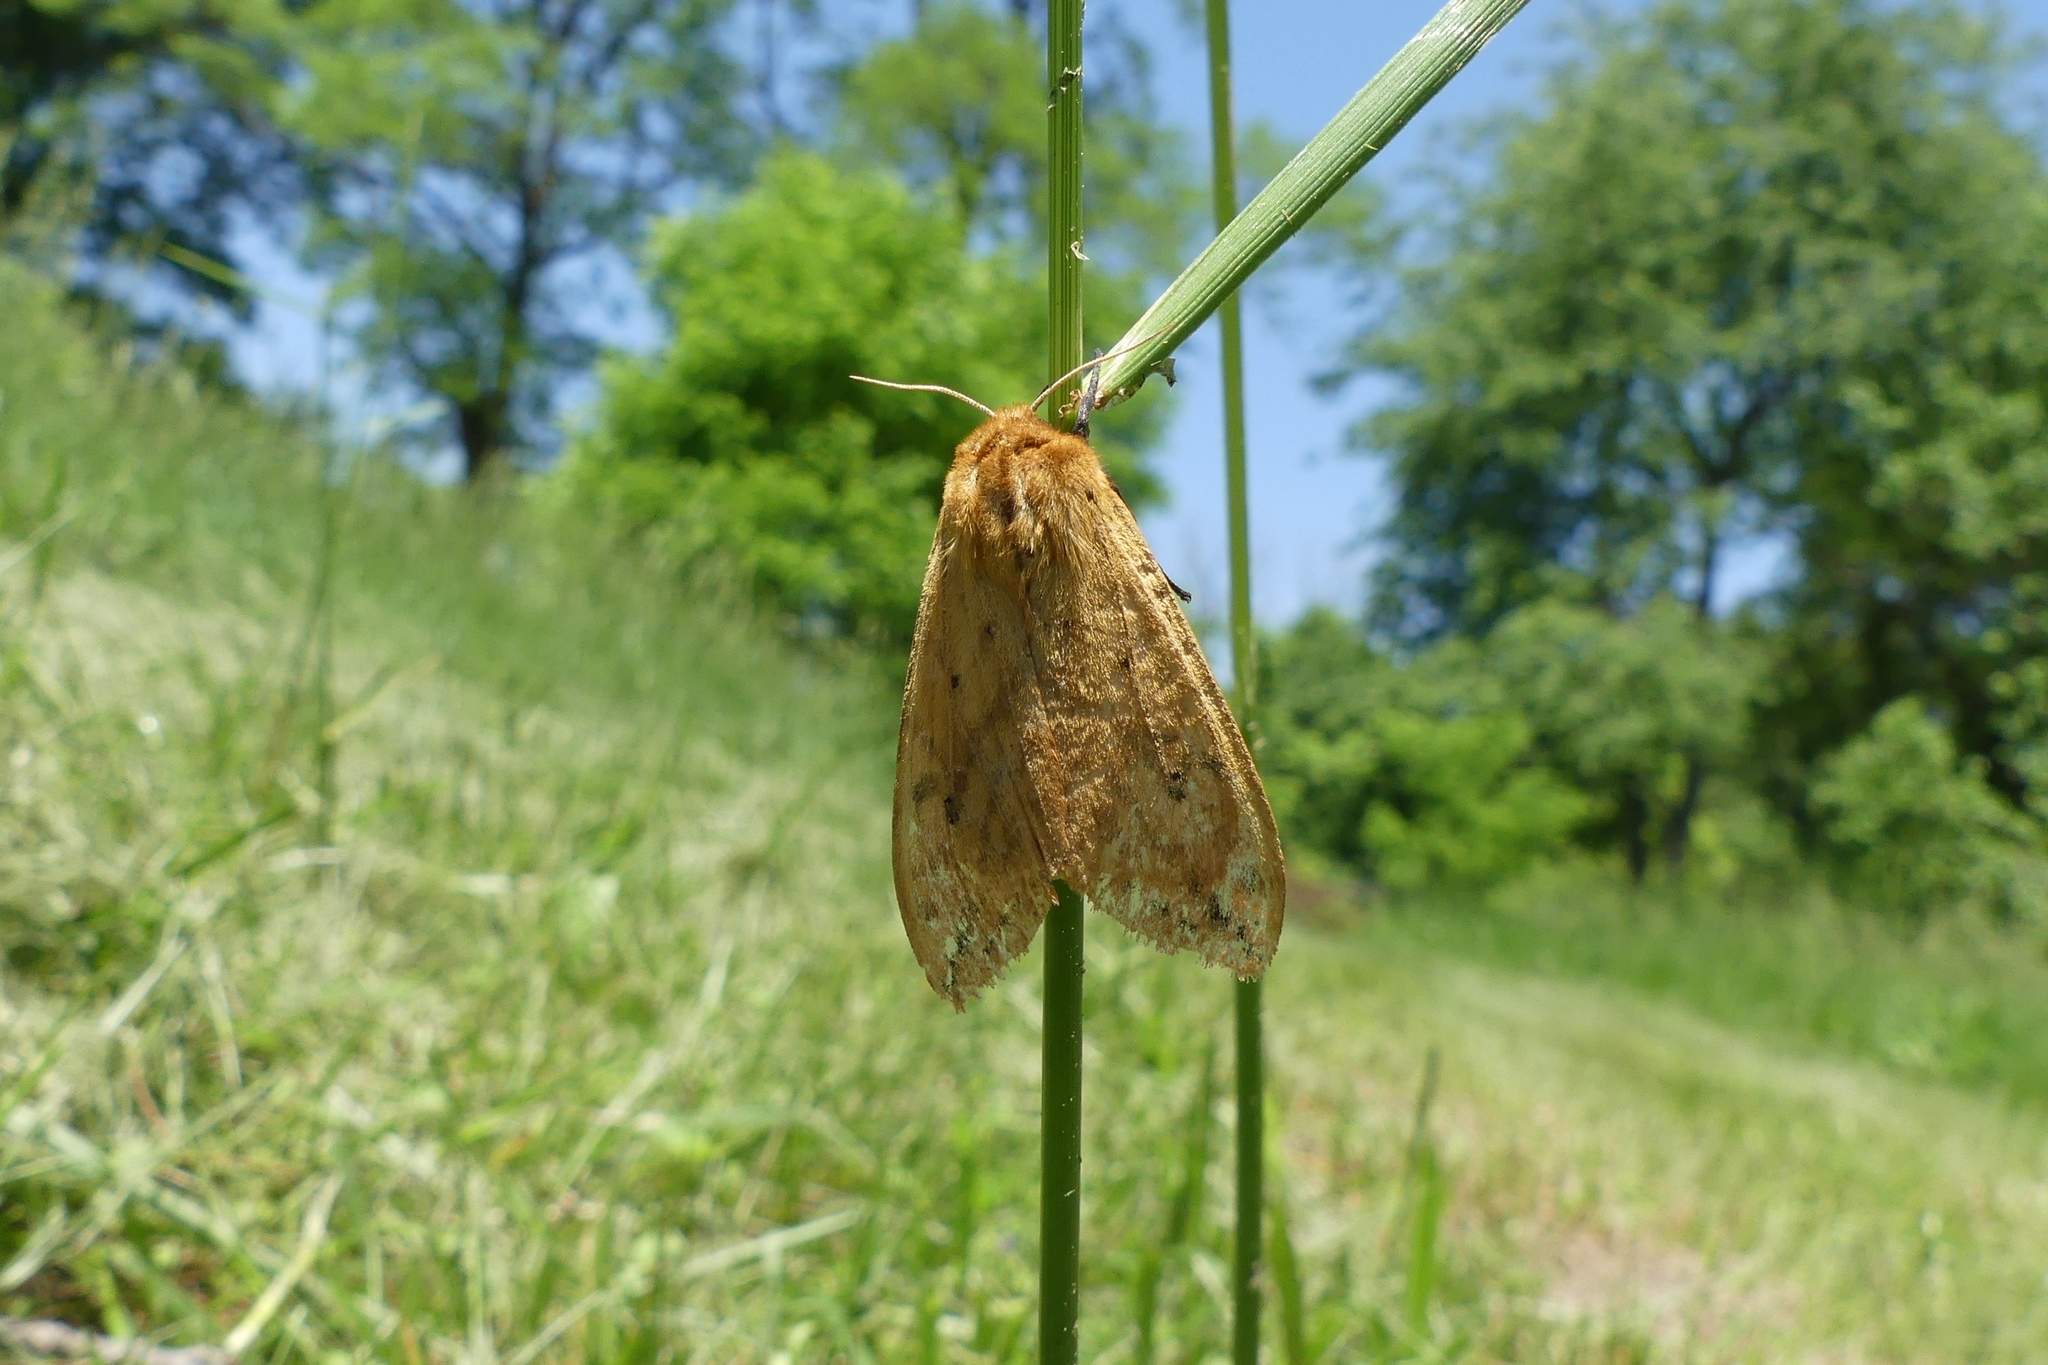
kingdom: Animalia
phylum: Arthropoda
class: Insecta
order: Lepidoptera
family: Erebidae
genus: Pyrrharctia
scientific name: Pyrrharctia isabella
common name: Isabella tiger moth
